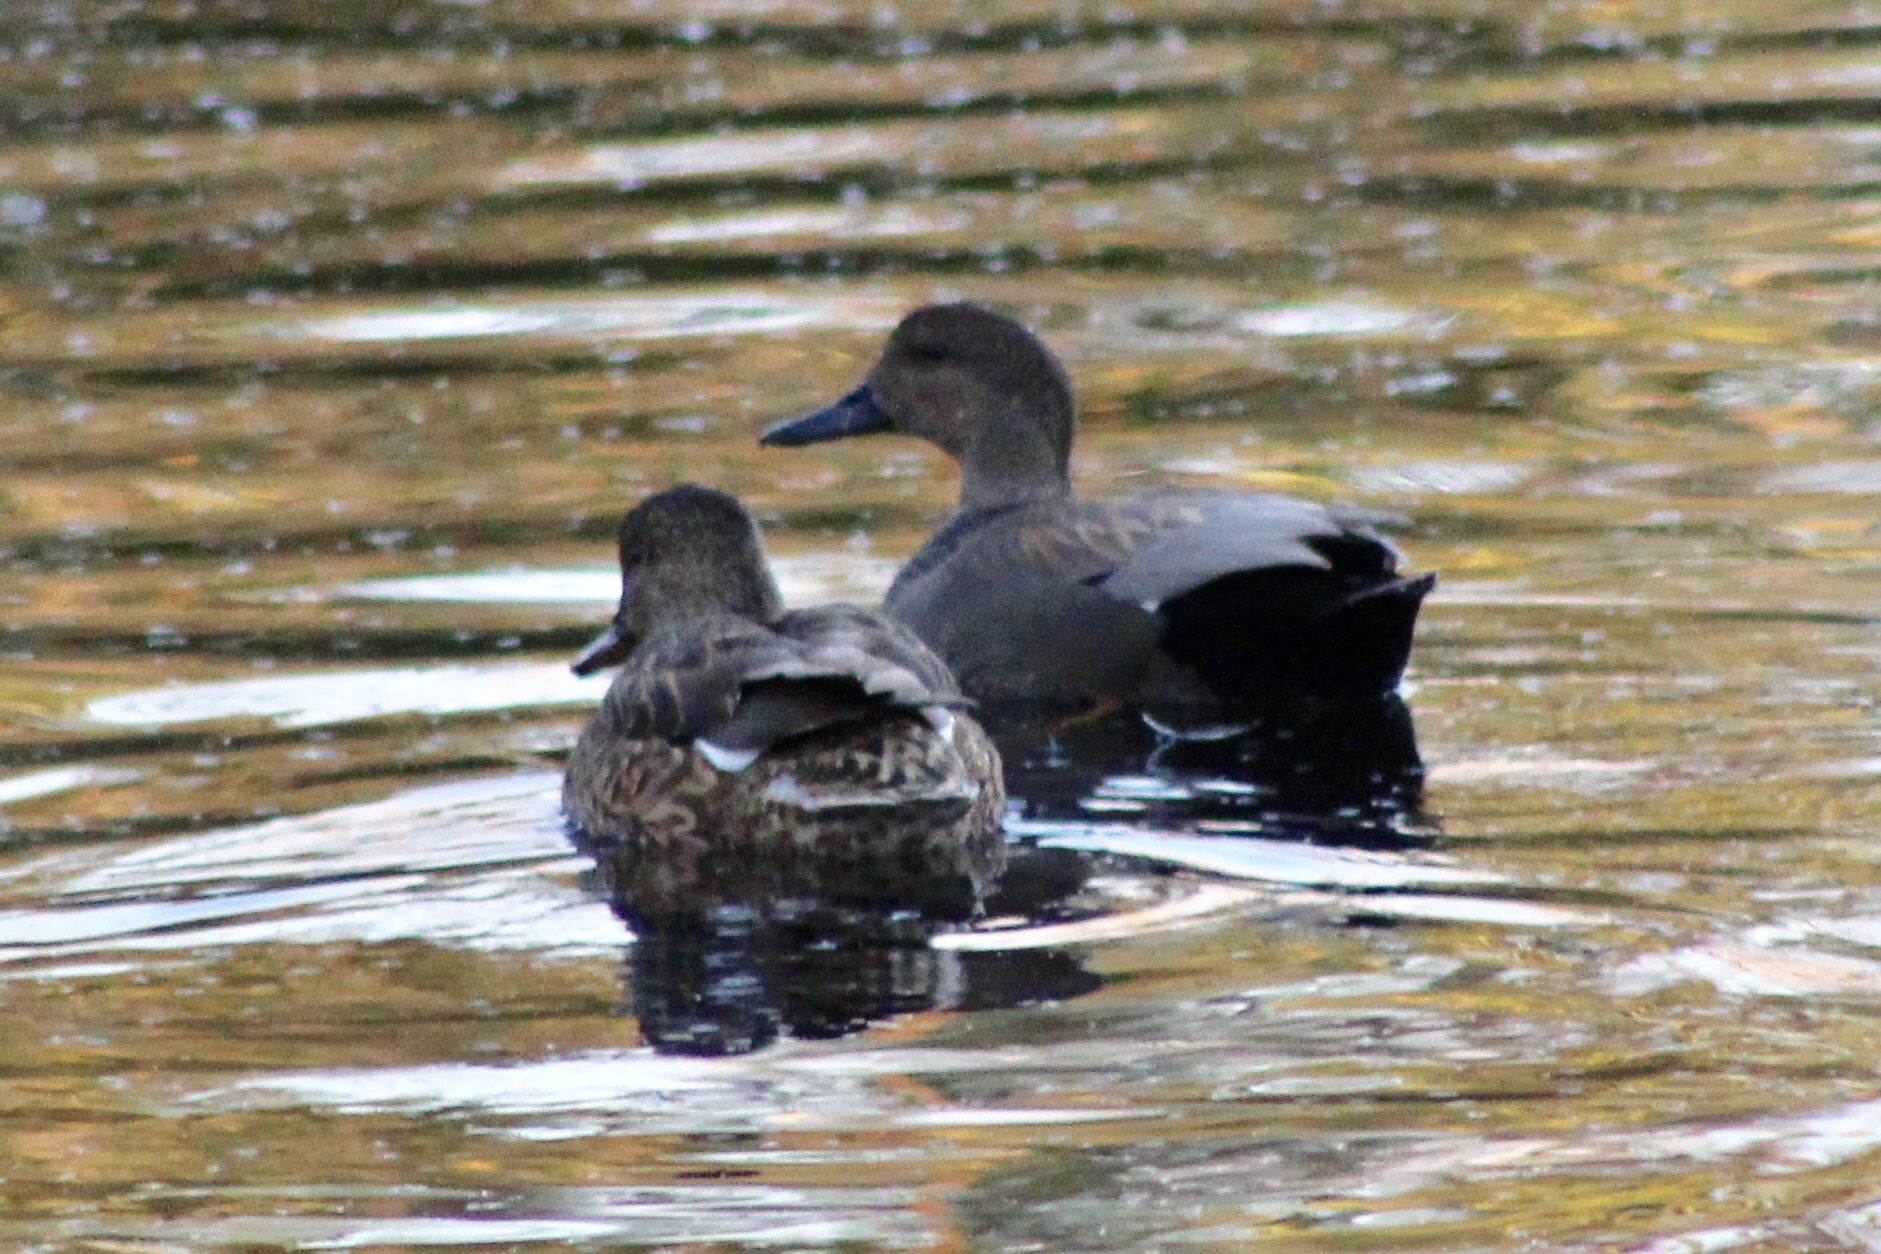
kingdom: Animalia
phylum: Chordata
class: Aves
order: Anseriformes
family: Anatidae
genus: Mareca
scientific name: Mareca strepera
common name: Gadwall
